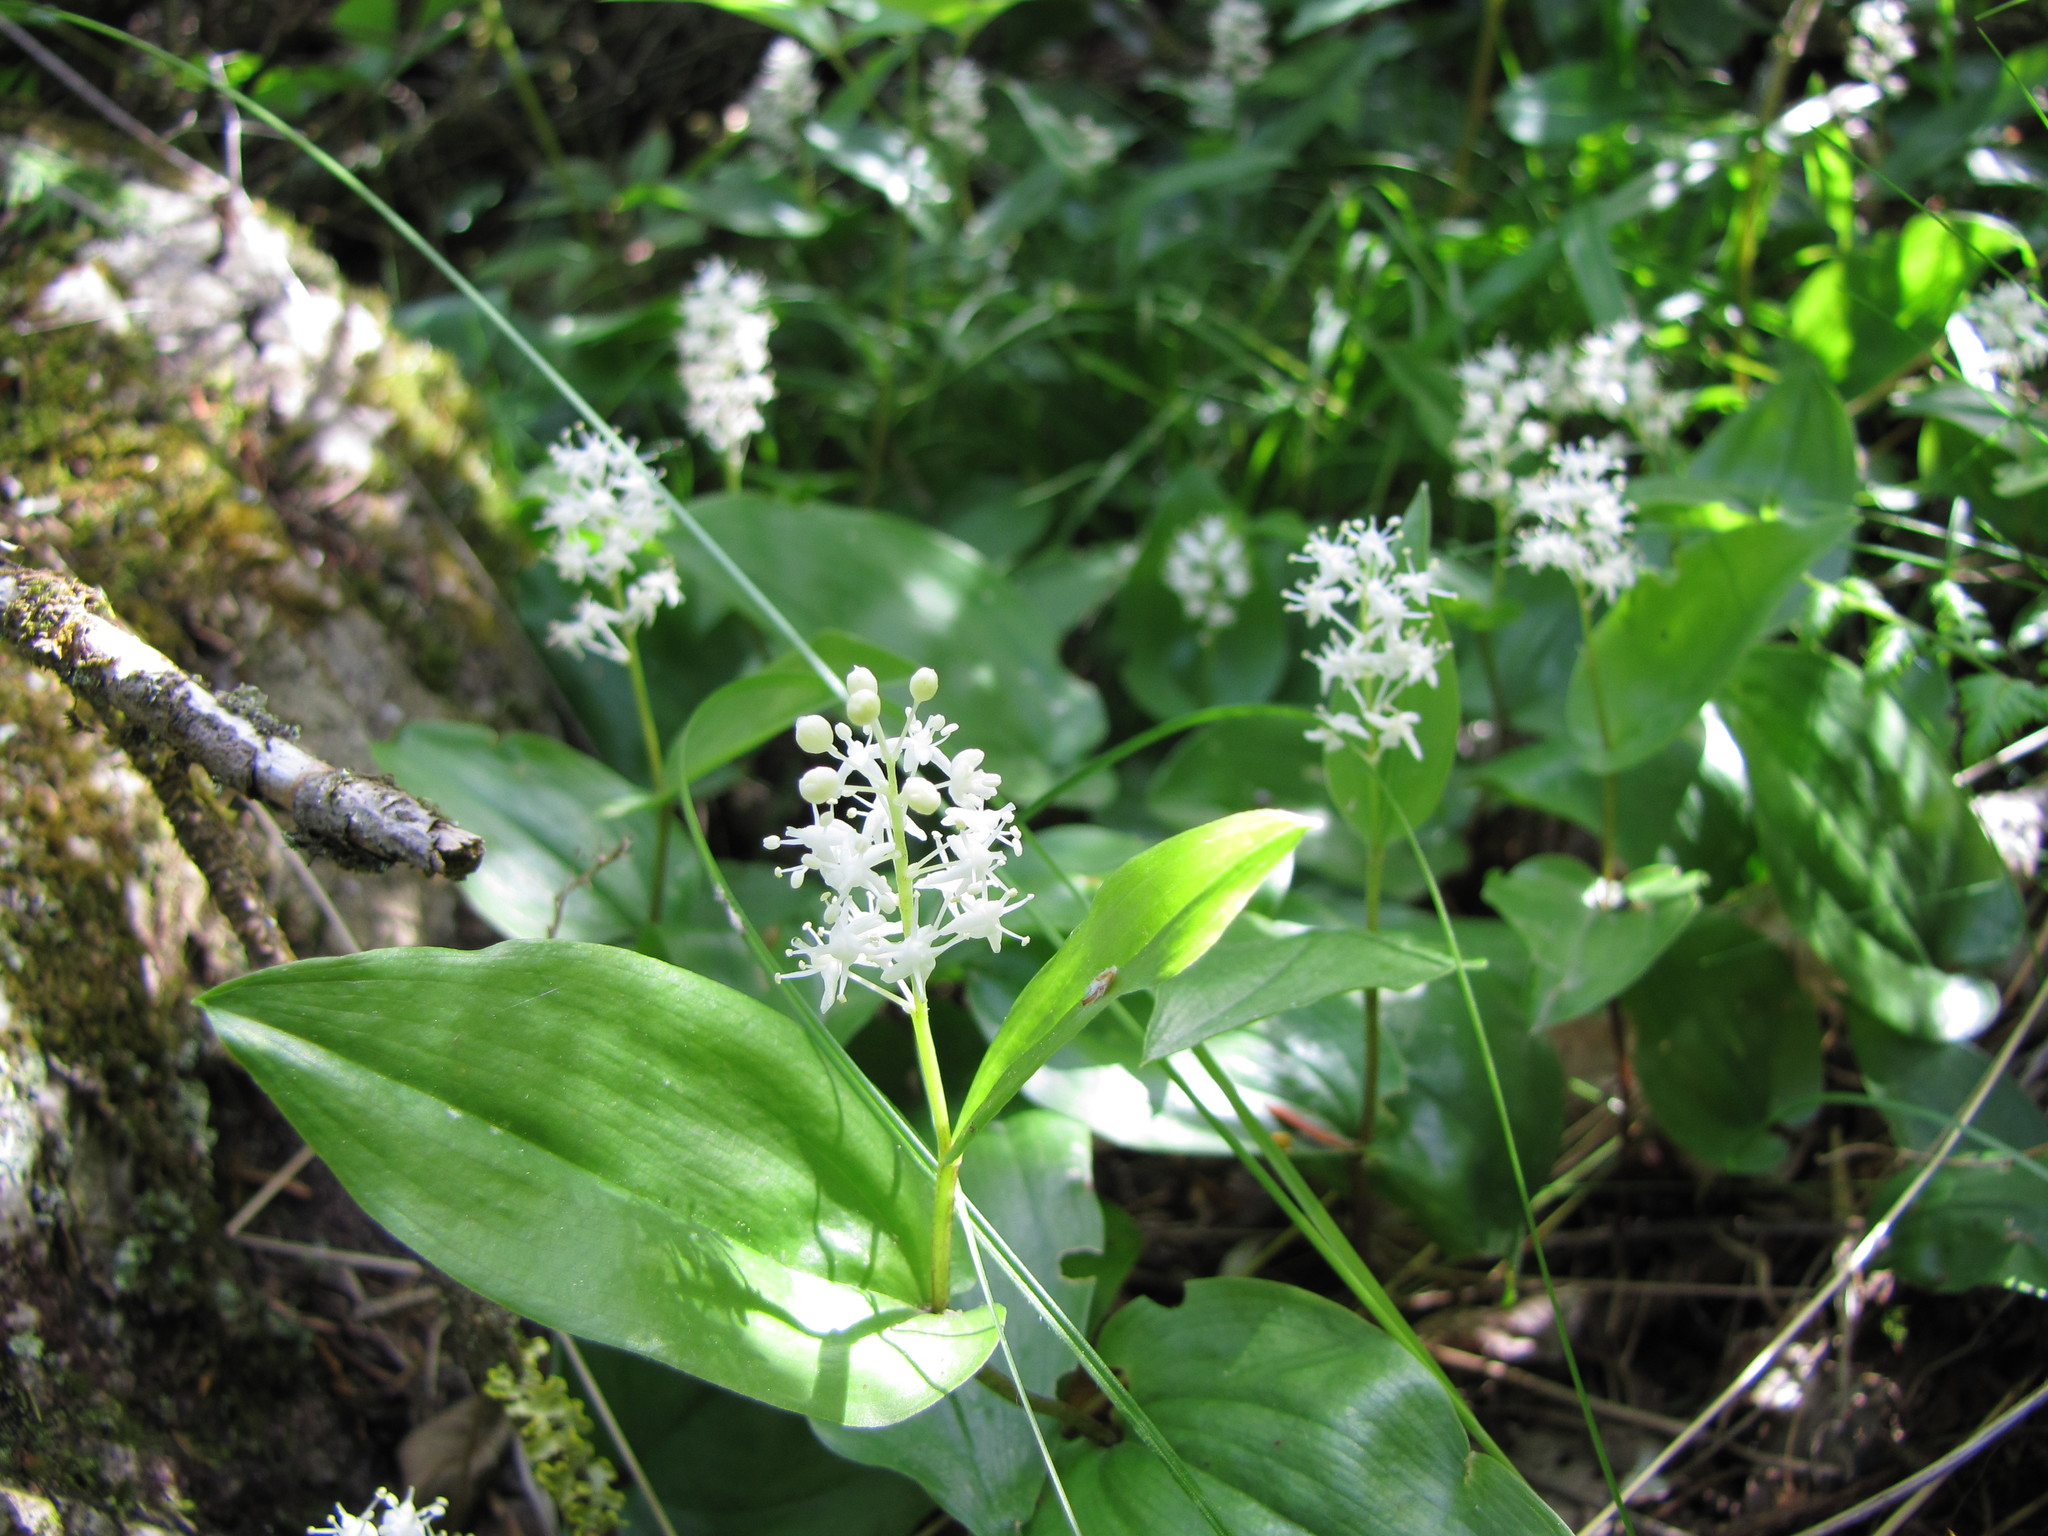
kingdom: Plantae
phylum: Tracheophyta
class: Liliopsida
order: Asparagales
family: Asparagaceae
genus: Maianthemum
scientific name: Maianthemum canadense
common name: False lily-of-the-valley
